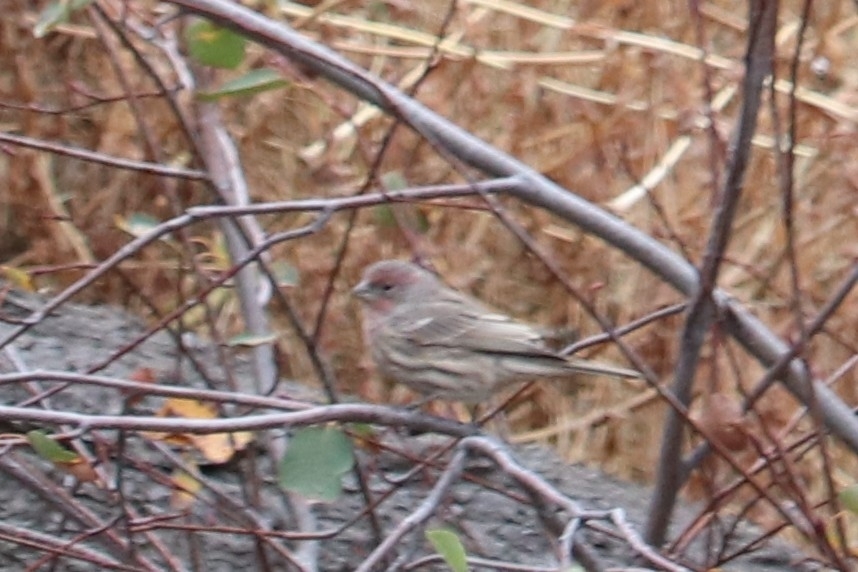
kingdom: Animalia
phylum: Chordata
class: Aves
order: Passeriformes
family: Fringillidae
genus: Haemorhous
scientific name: Haemorhous mexicanus
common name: House finch
